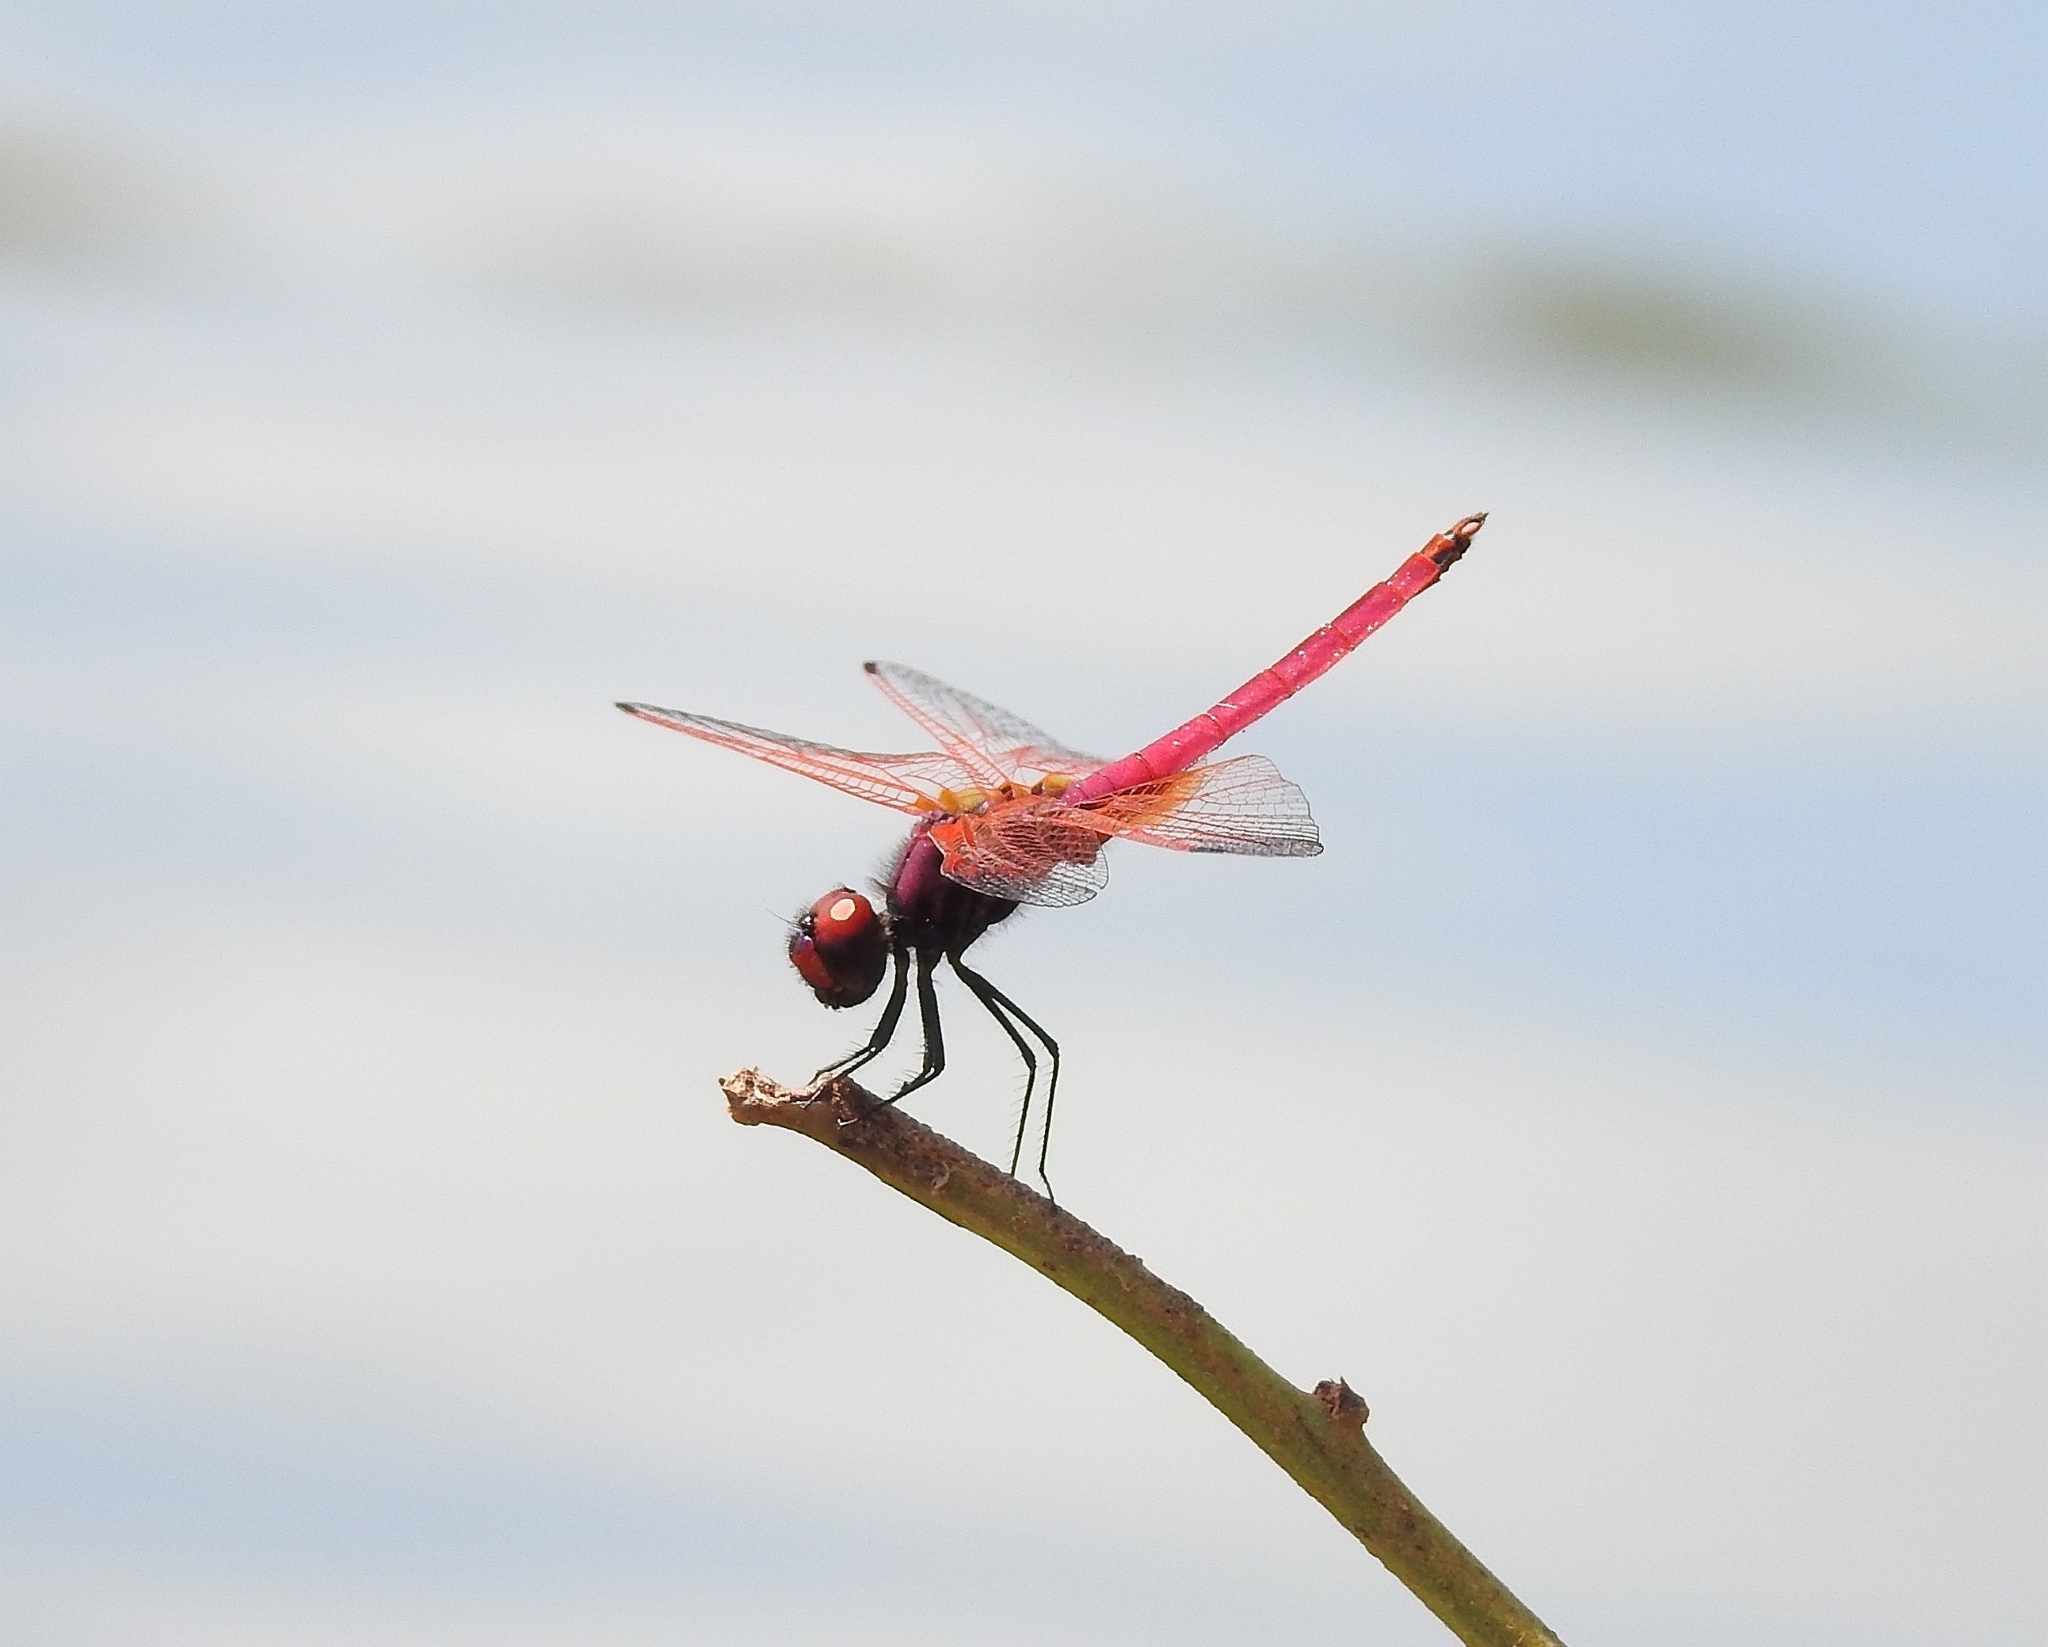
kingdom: Animalia
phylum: Arthropoda
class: Insecta
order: Odonata
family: Libellulidae
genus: Trithemis
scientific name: Trithemis aurora
